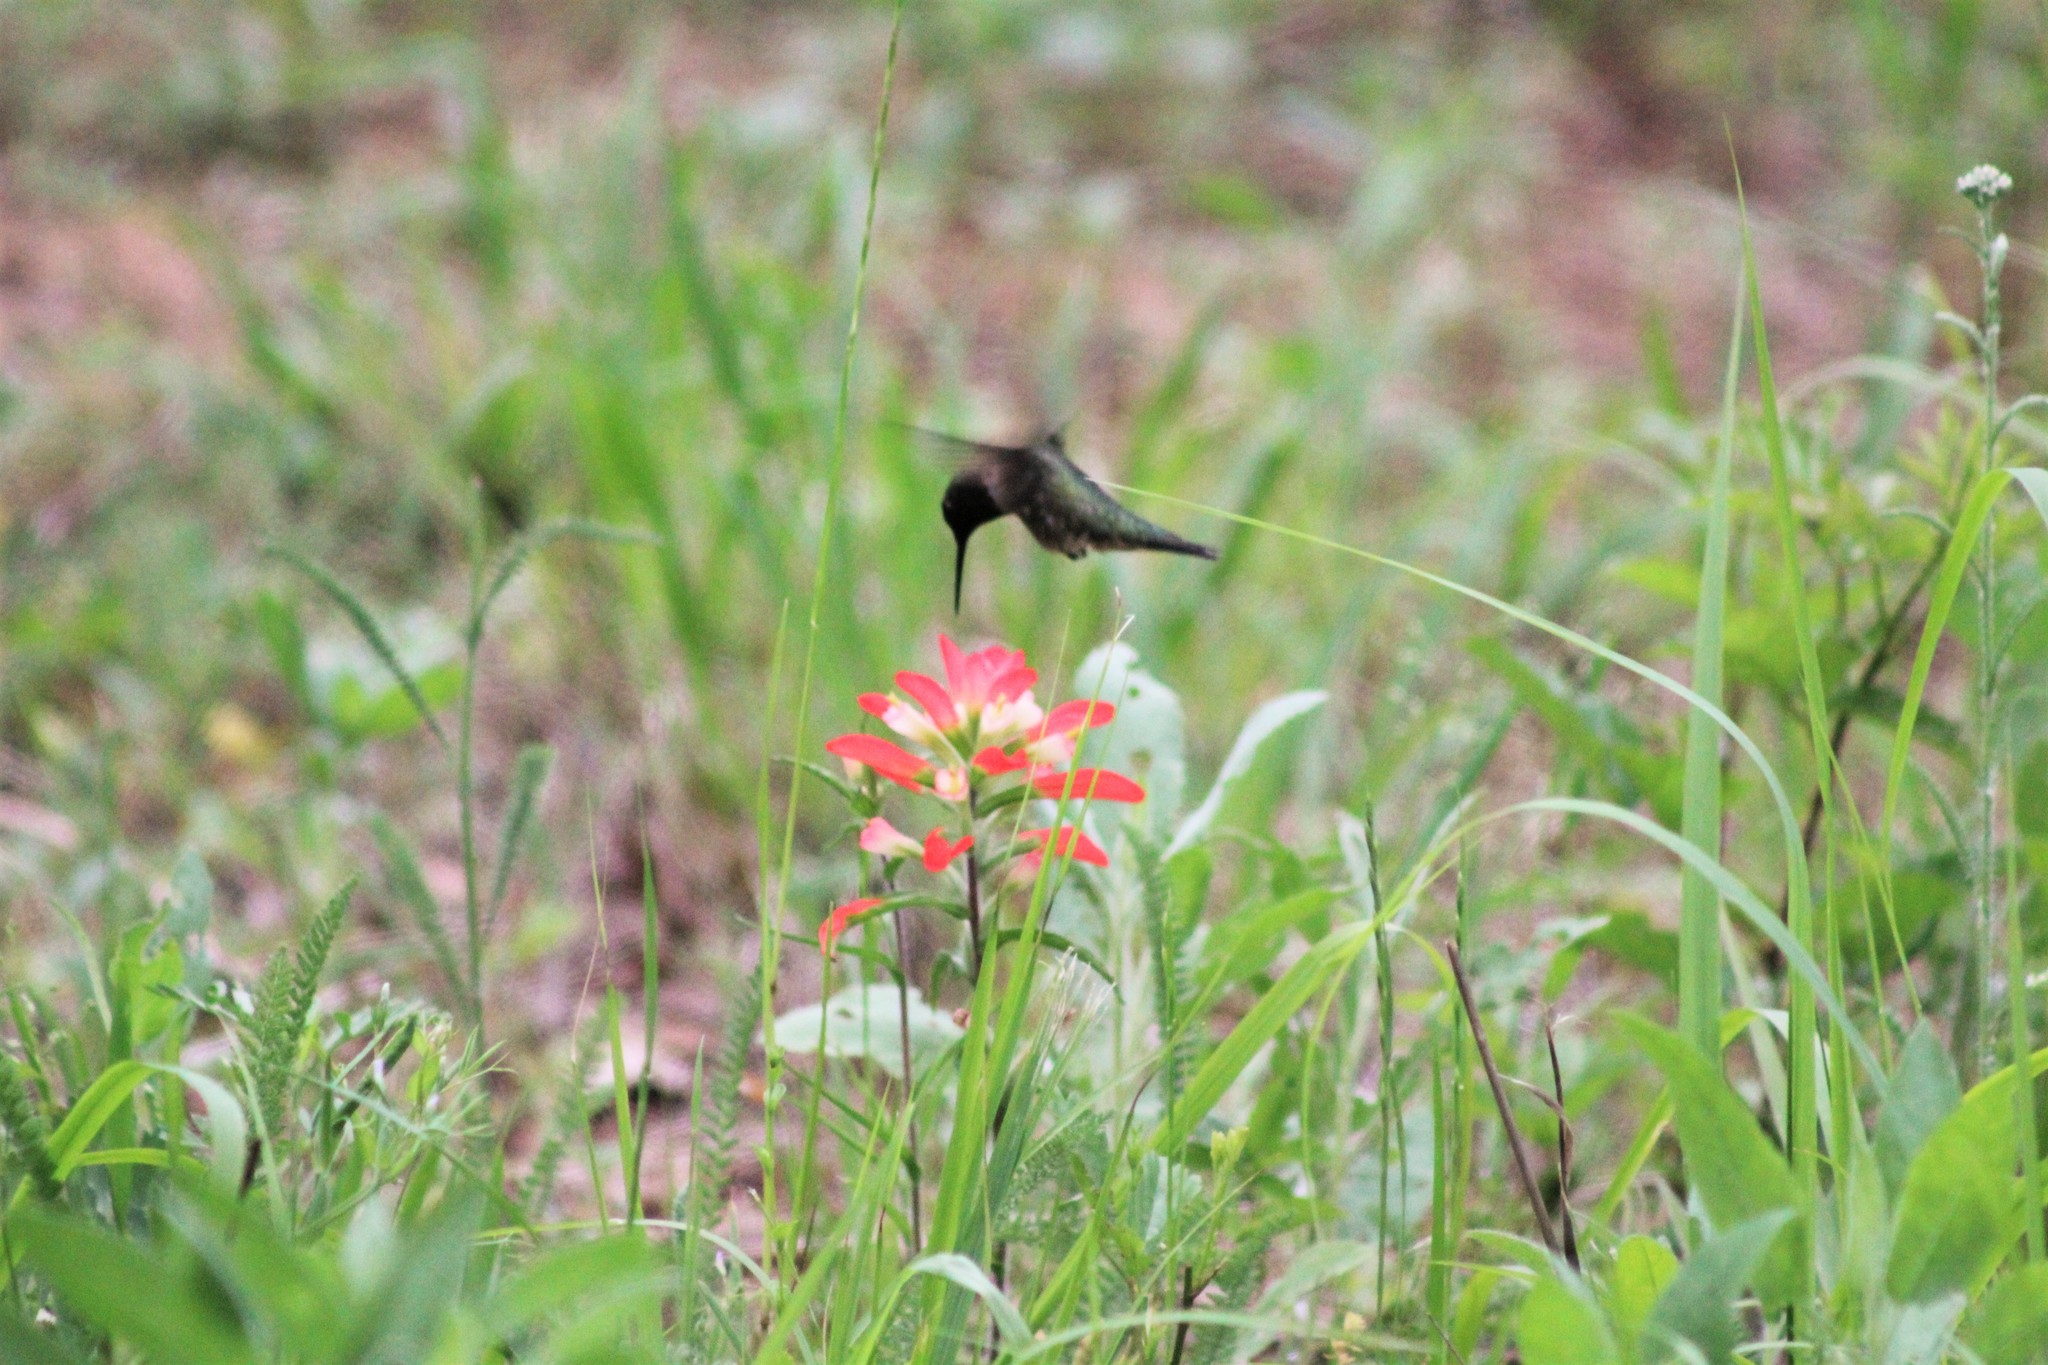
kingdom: Animalia
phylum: Chordata
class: Aves
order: Apodiformes
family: Trochilidae
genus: Archilochus
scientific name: Archilochus colubris
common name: Ruby-throated hummingbird
